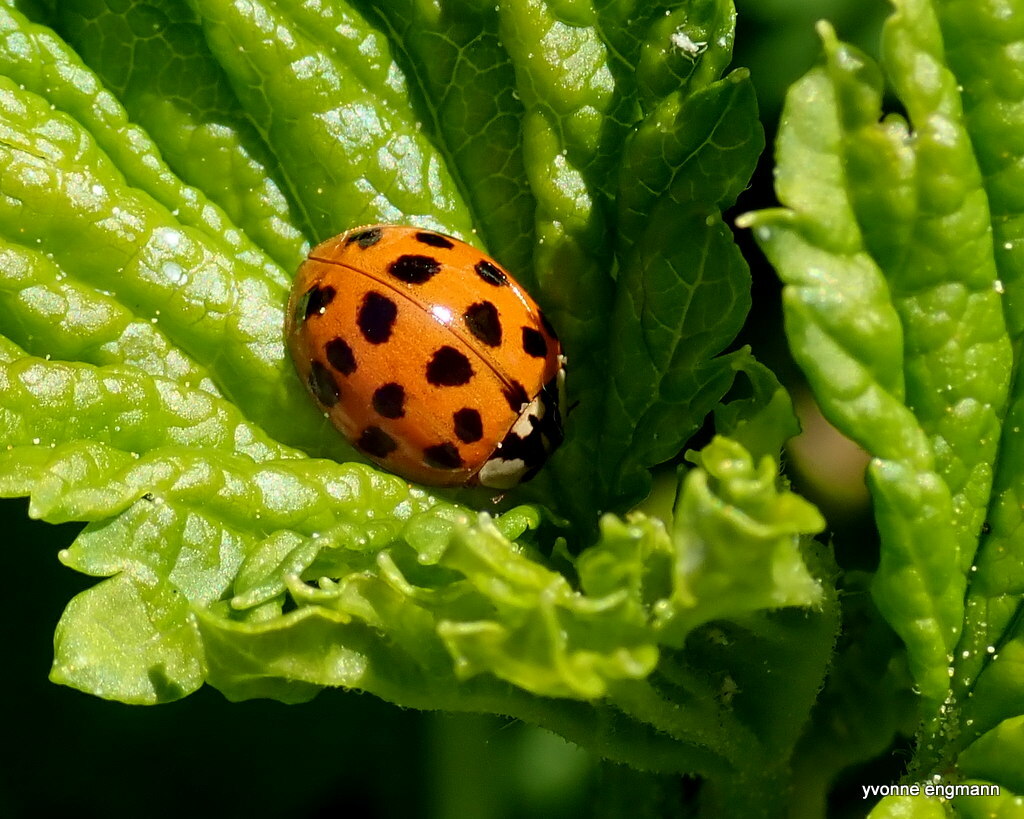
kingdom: Animalia
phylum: Arthropoda
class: Insecta
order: Coleoptera
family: Coccinellidae
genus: Harmonia
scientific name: Harmonia axyridis
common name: Harlequin ladybird
